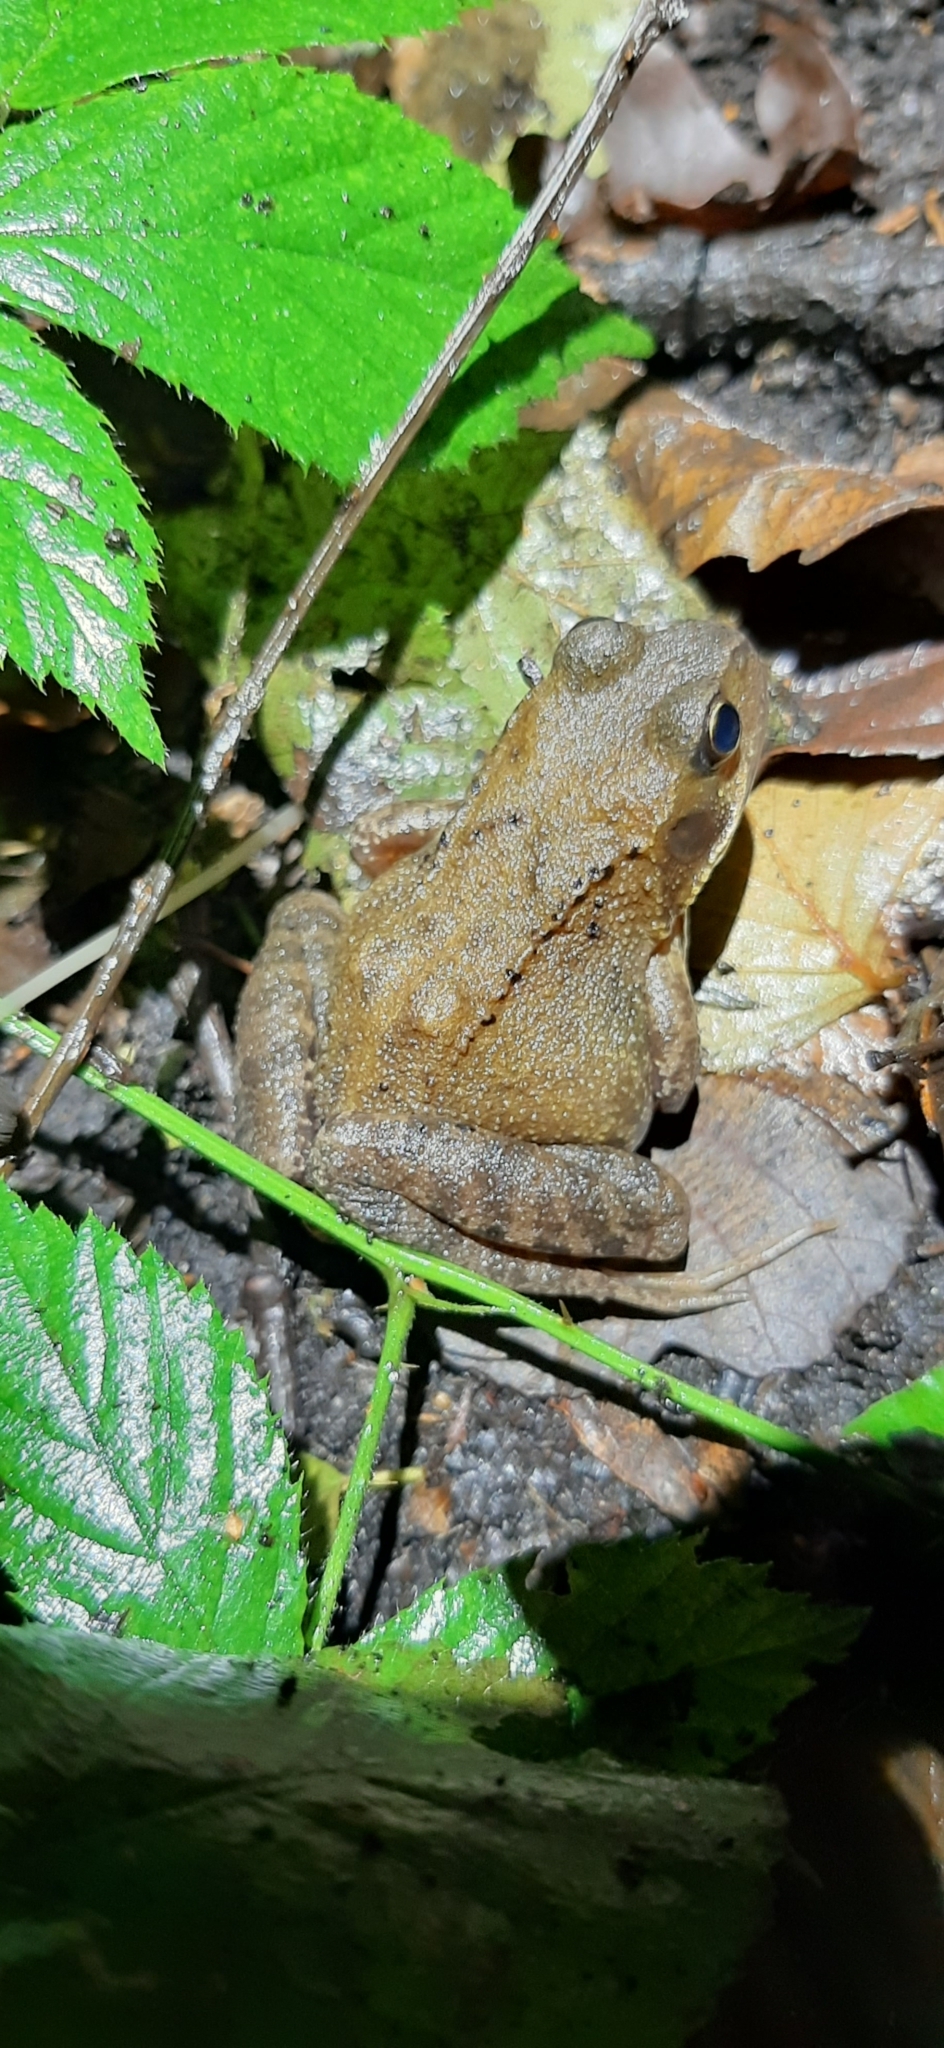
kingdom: Animalia
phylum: Chordata
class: Amphibia
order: Anura
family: Ranidae
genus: Rana
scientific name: Rana temporaria
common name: Common frog
